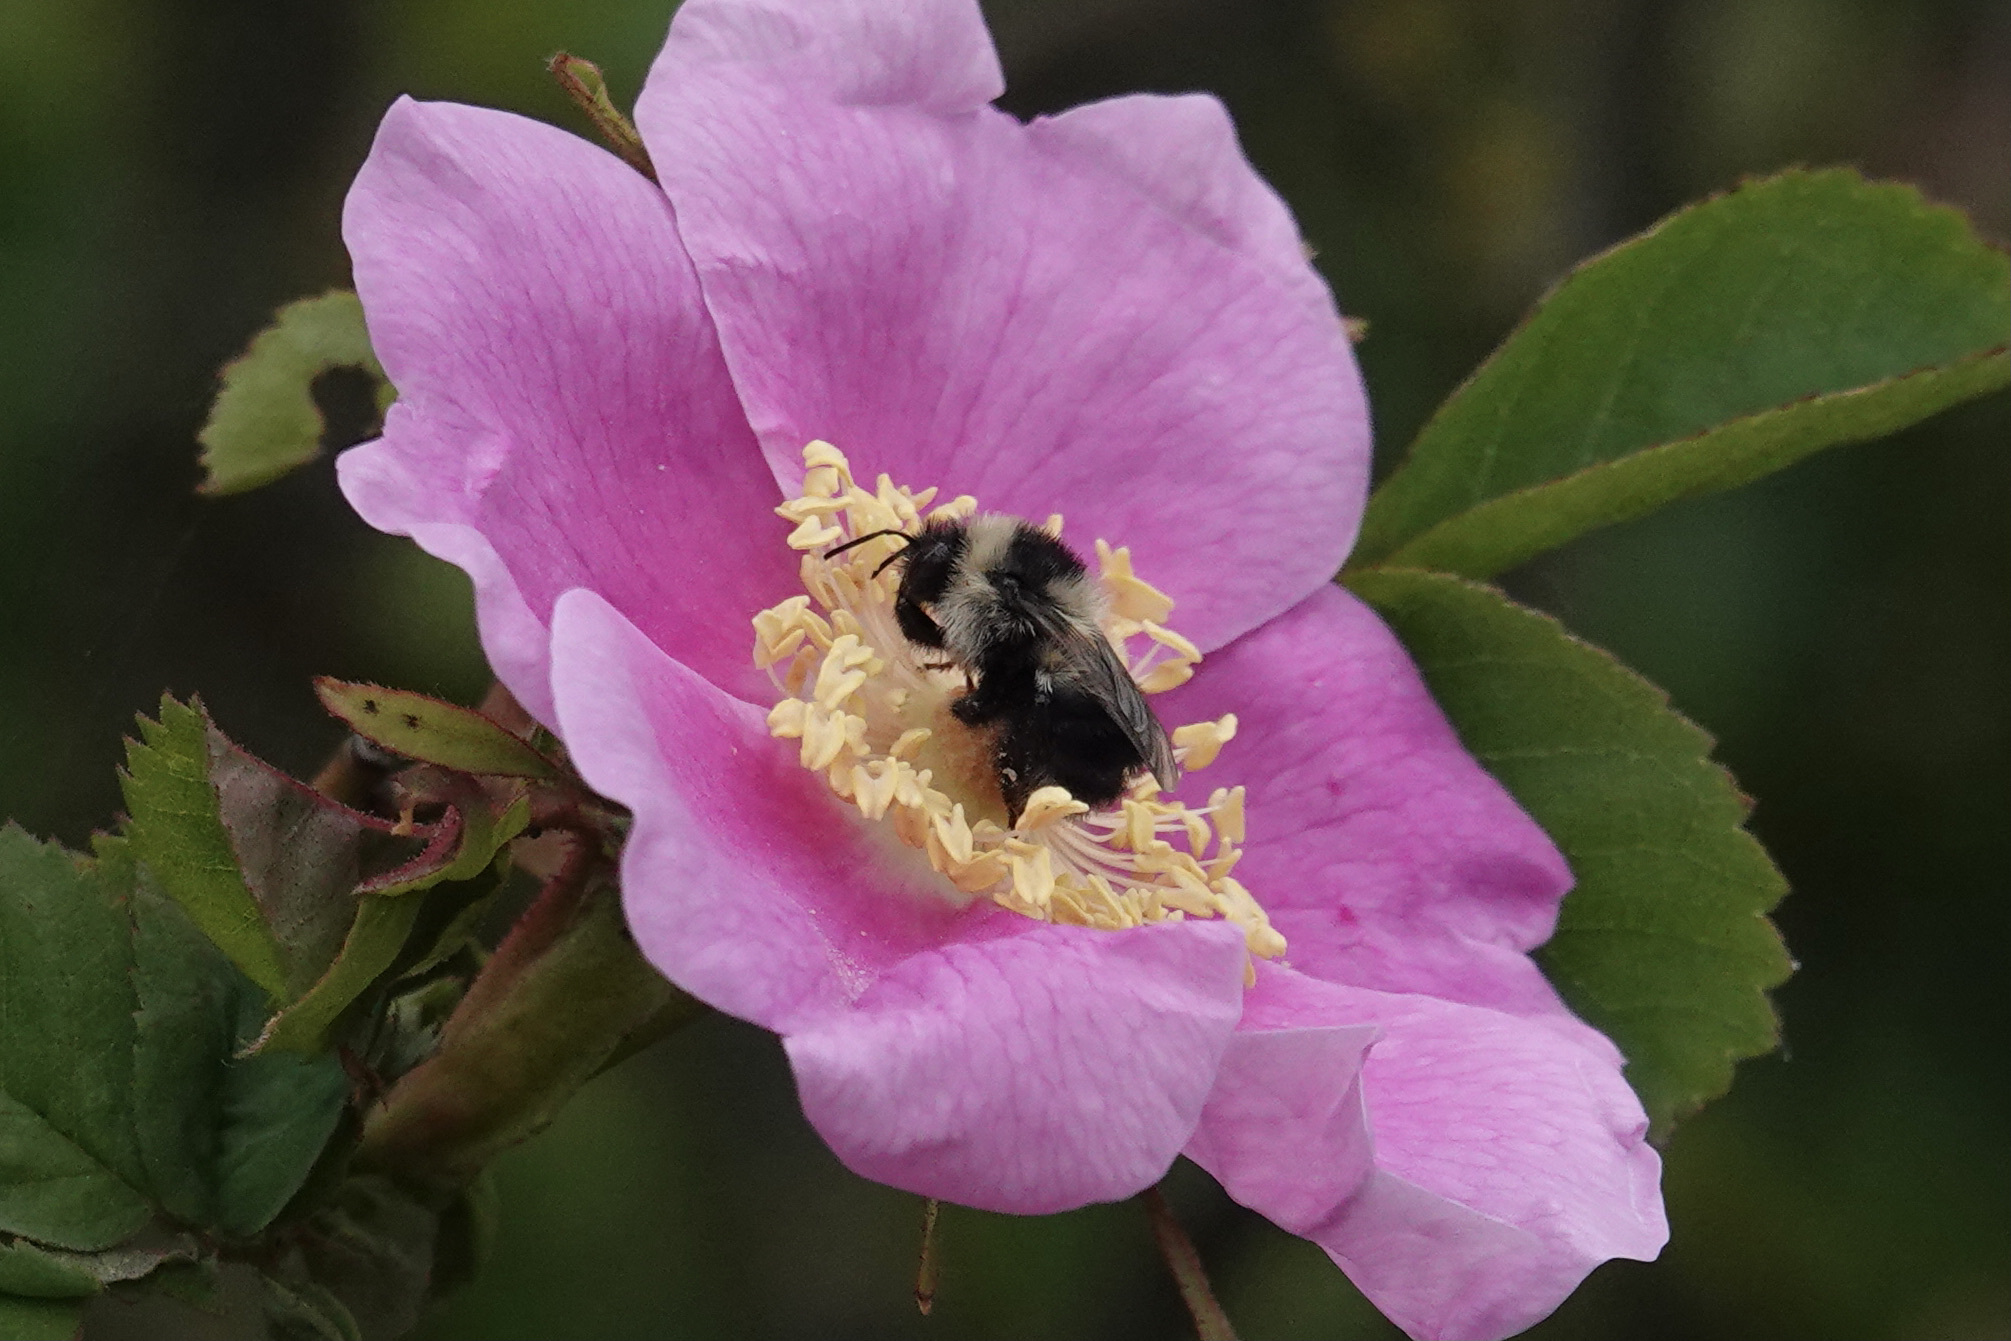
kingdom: Animalia
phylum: Arthropoda
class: Insecta
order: Hymenoptera
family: Apidae
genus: Bombus
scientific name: Bombus rufocinctus
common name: Red-belted bumble bee
